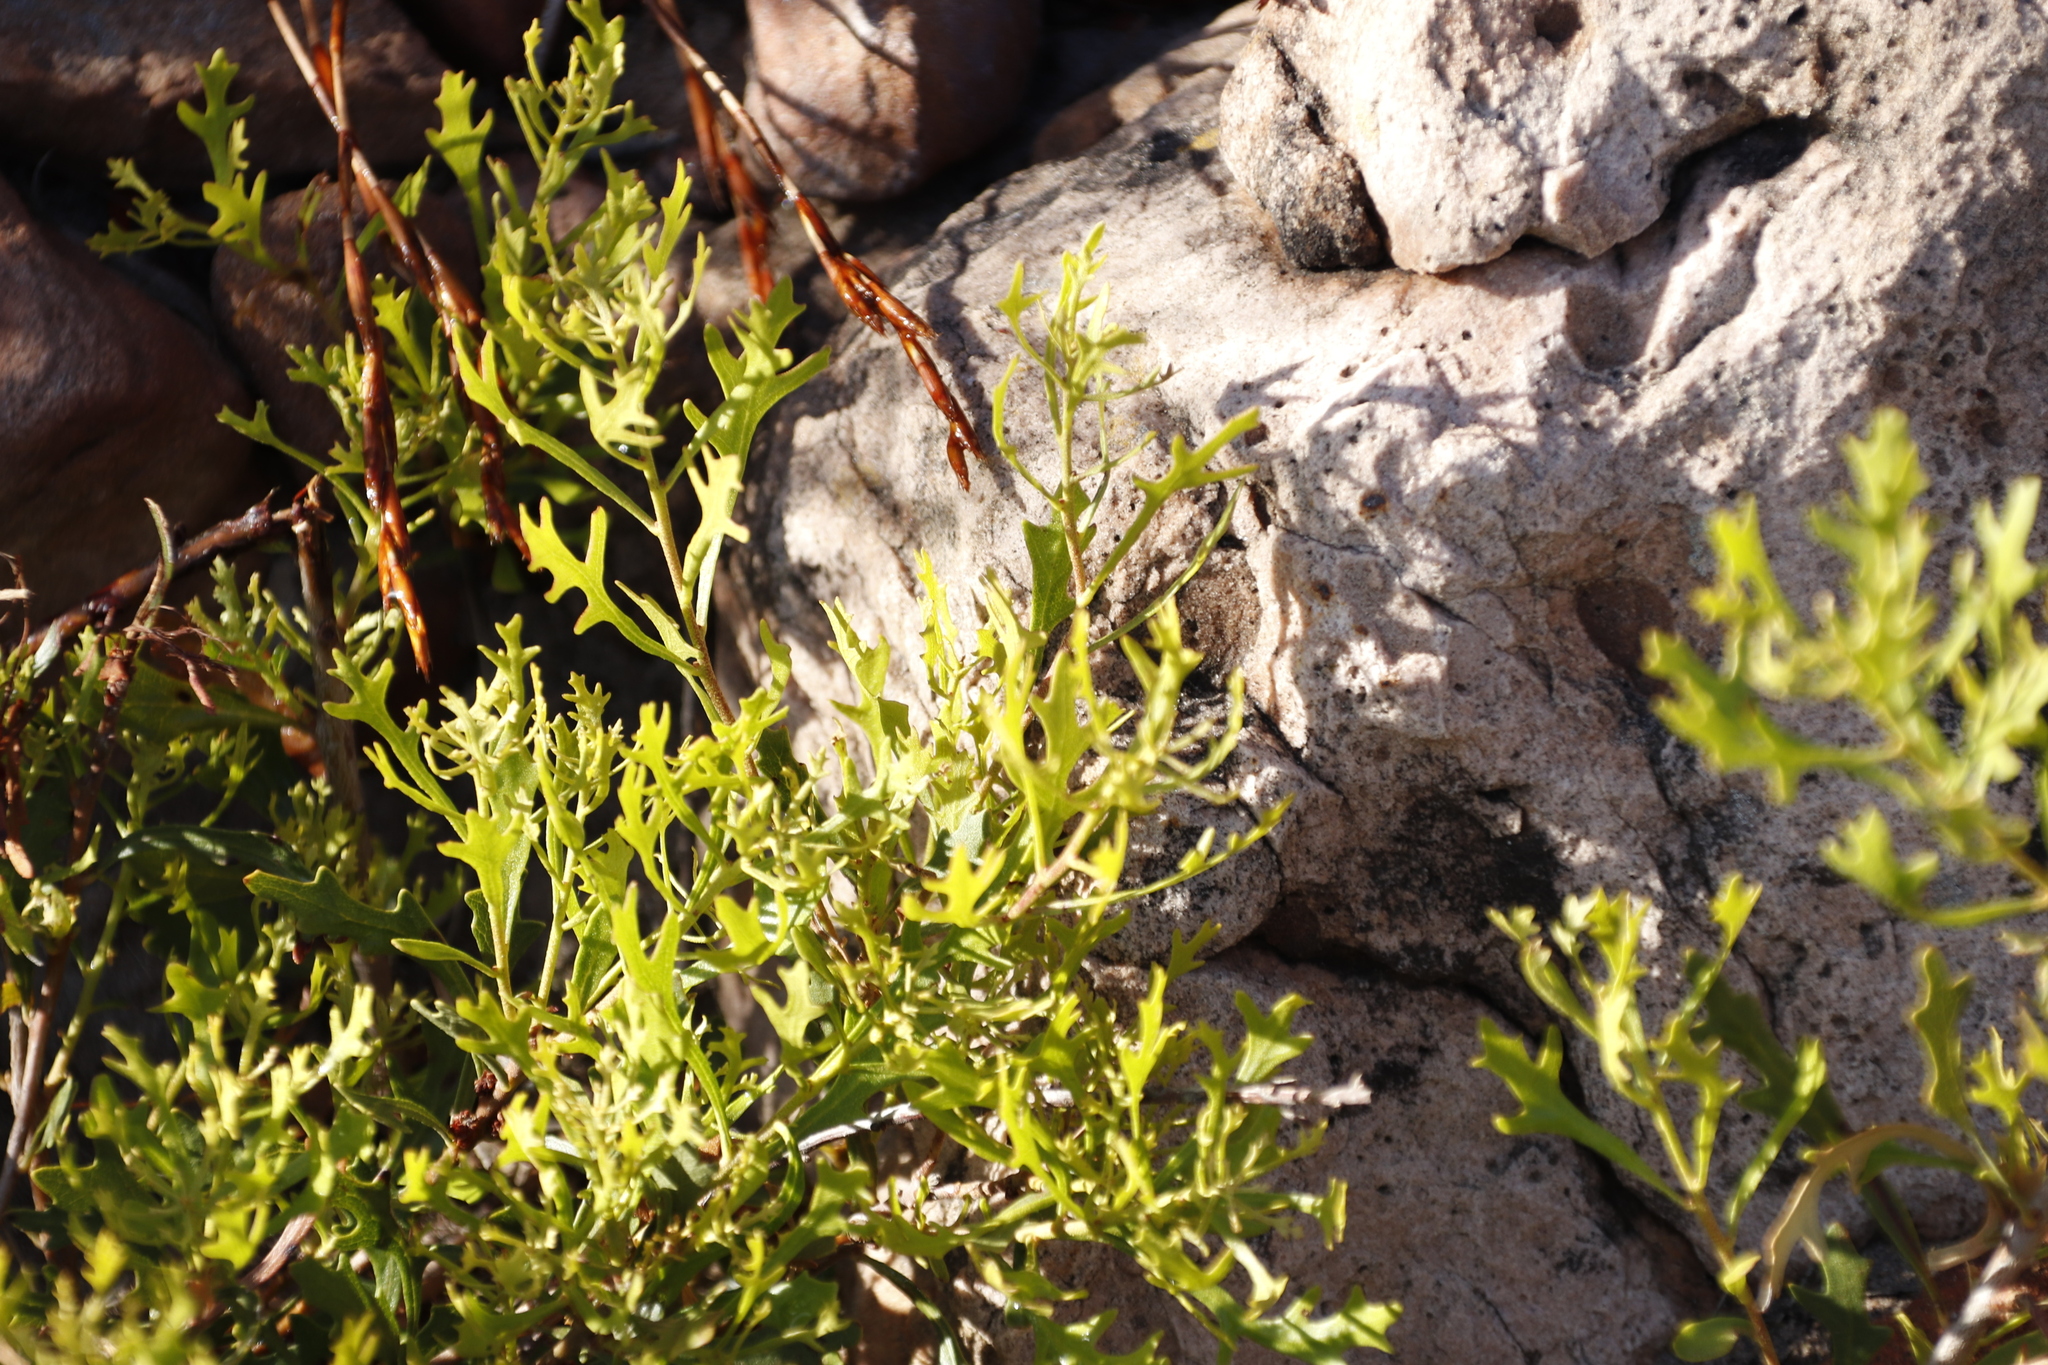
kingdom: Plantae
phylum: Tracheophyta
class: Magnoliopsida
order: Fagales
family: Myricaceae
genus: Morella
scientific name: Morella quercifolia
